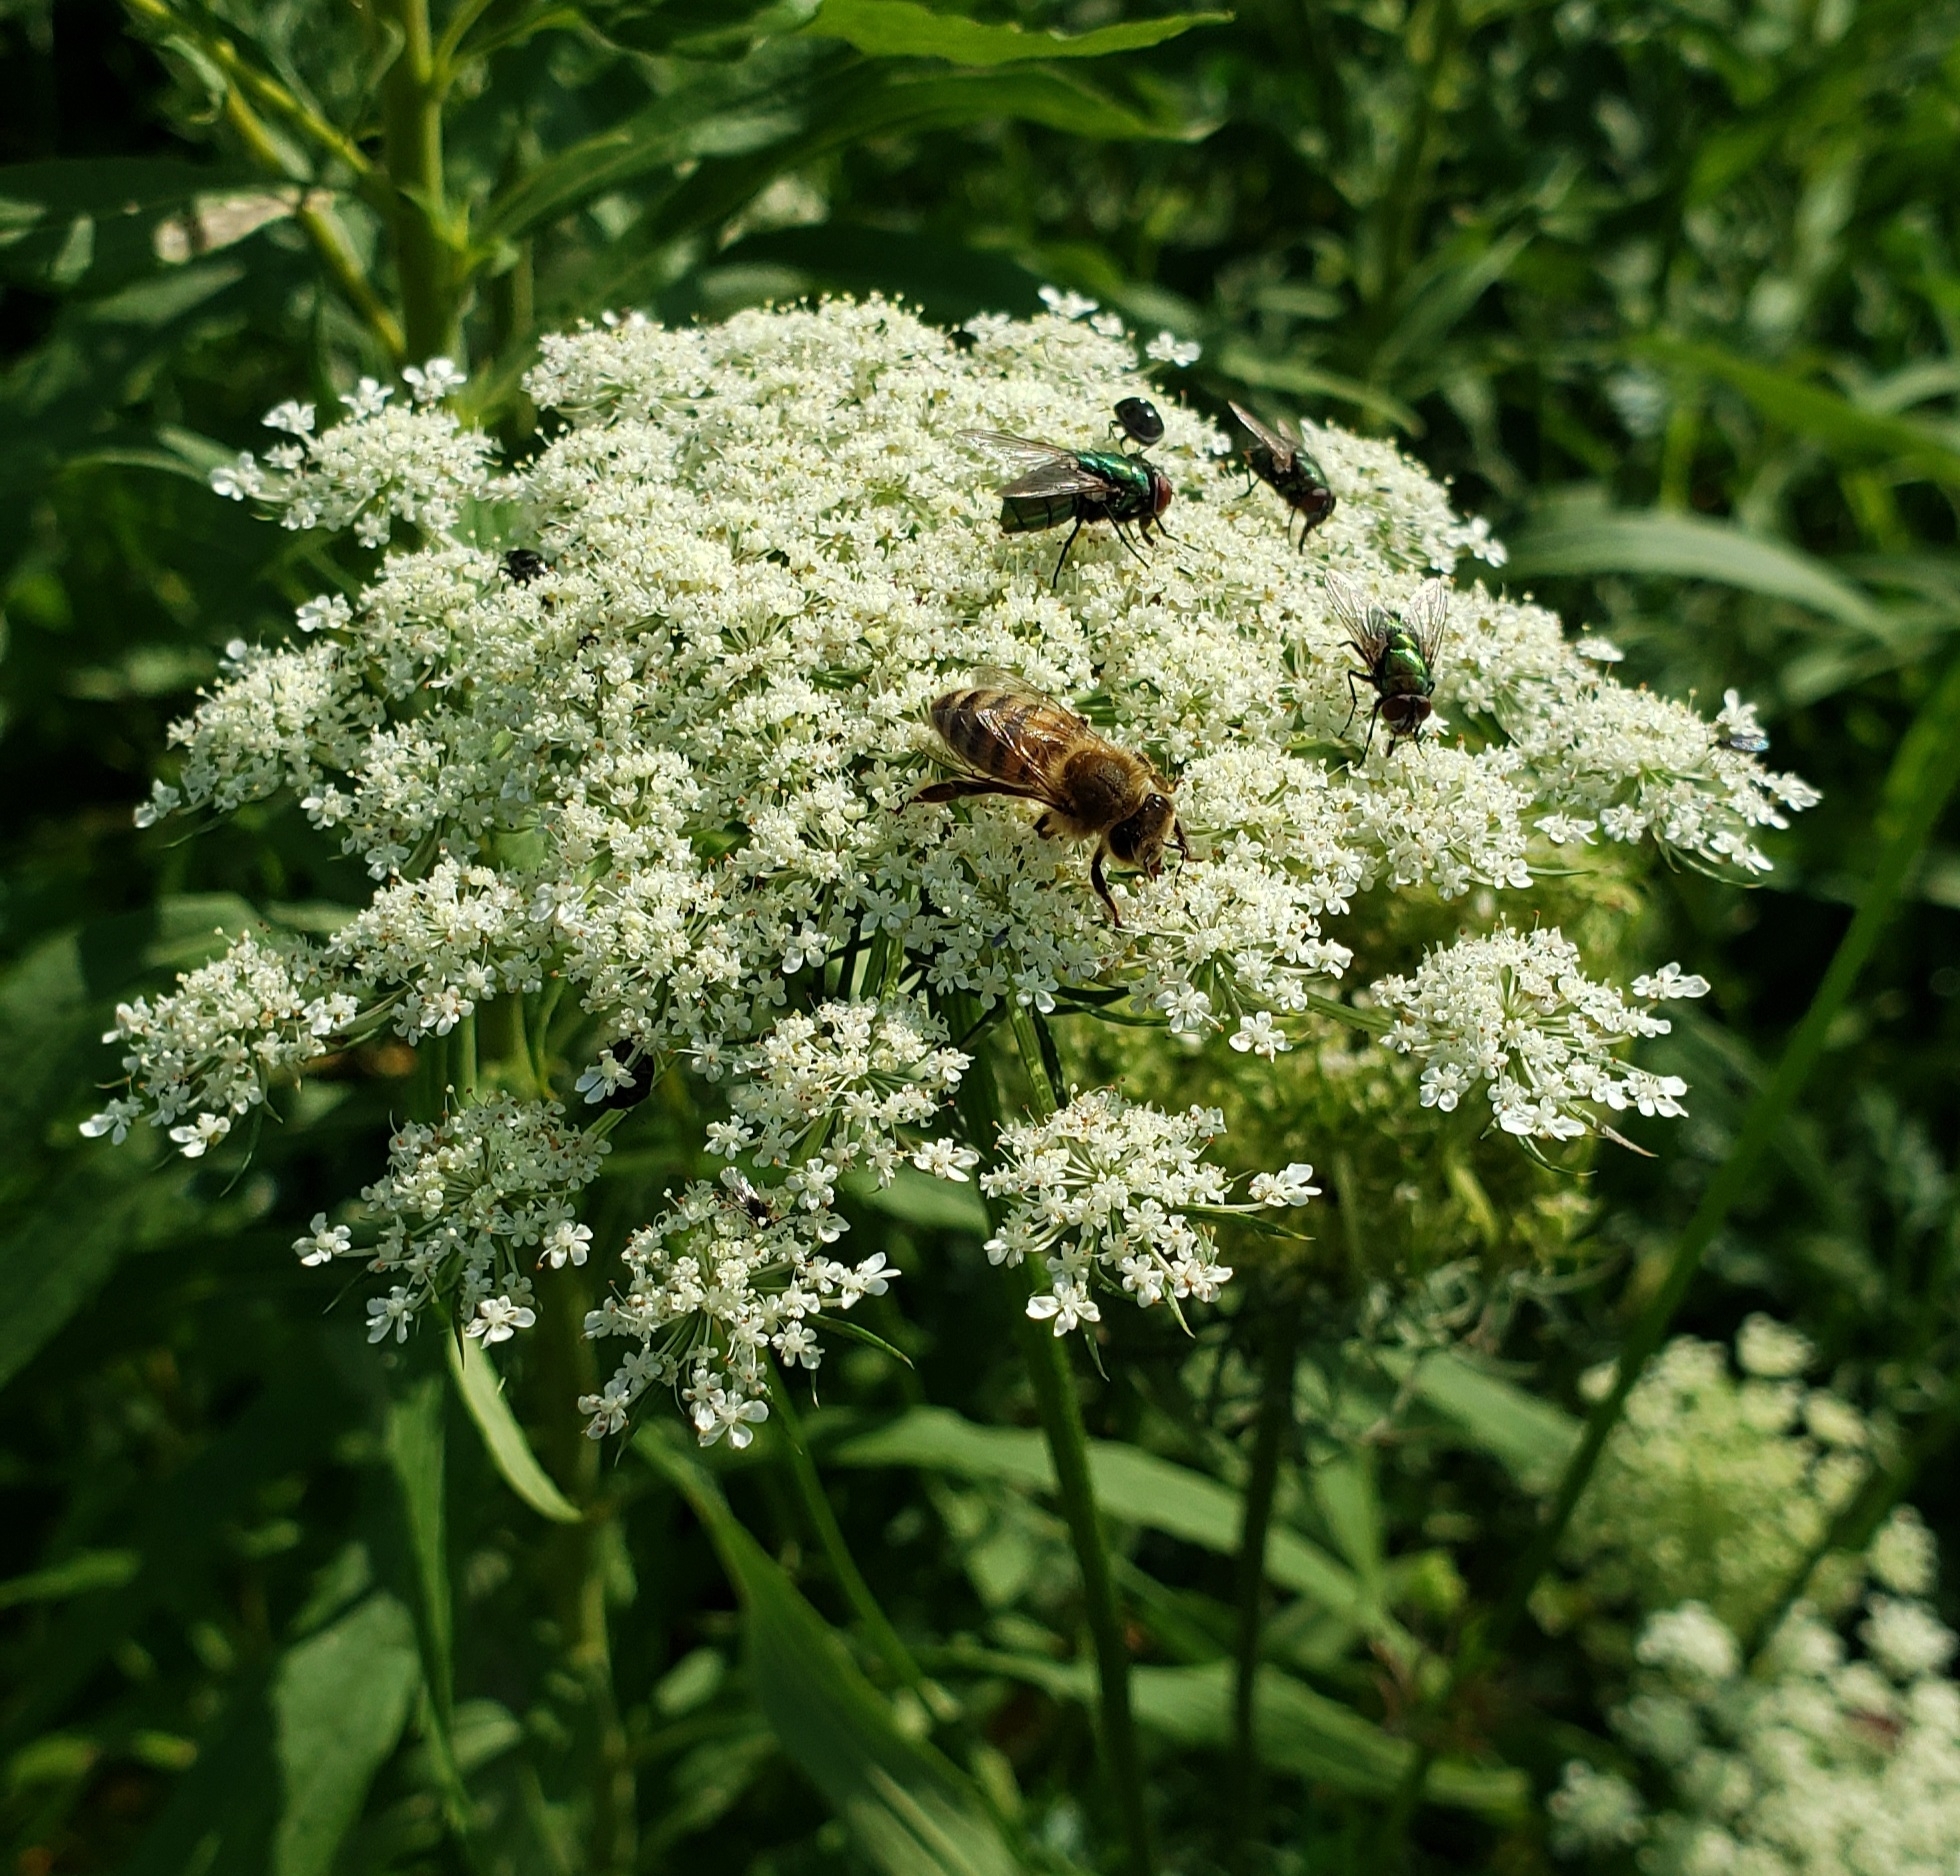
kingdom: Animalia
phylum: Arthropoda
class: Insecta
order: Hymenoptera
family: Apidae
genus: Apis
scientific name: Apis mellifera
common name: Honey bee
